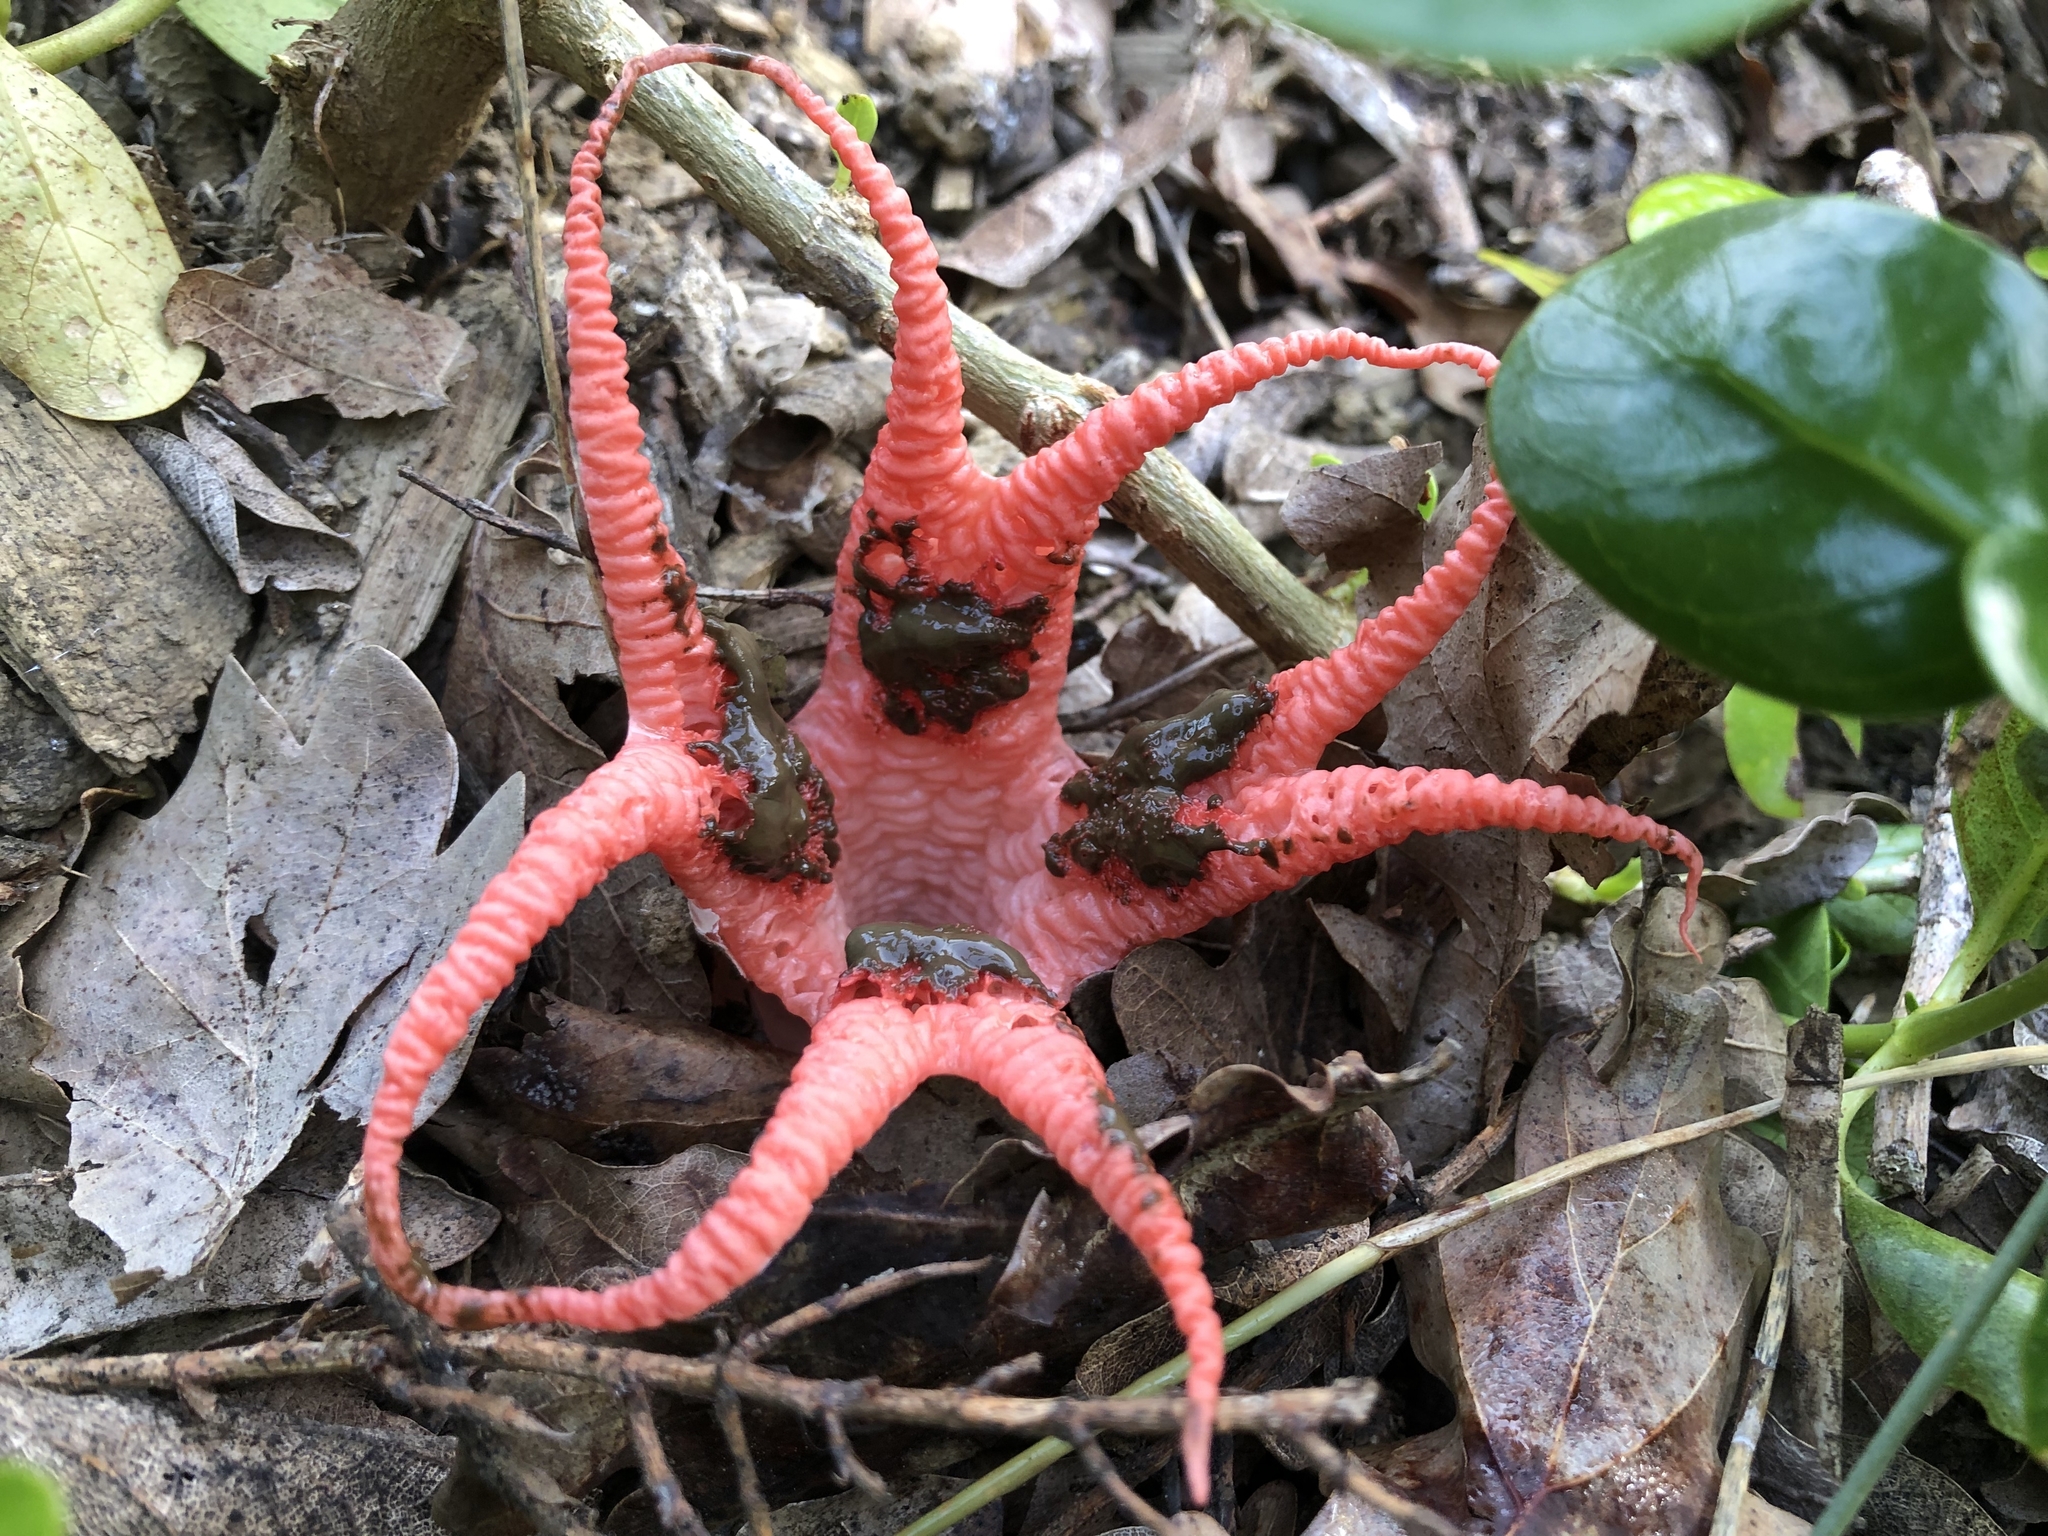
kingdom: Fungi
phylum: Basidiomycota
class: Agaricomycetes
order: Phallales
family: Phallaceae
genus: Clathrus
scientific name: Clathrus archeri
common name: Devil's fingers
